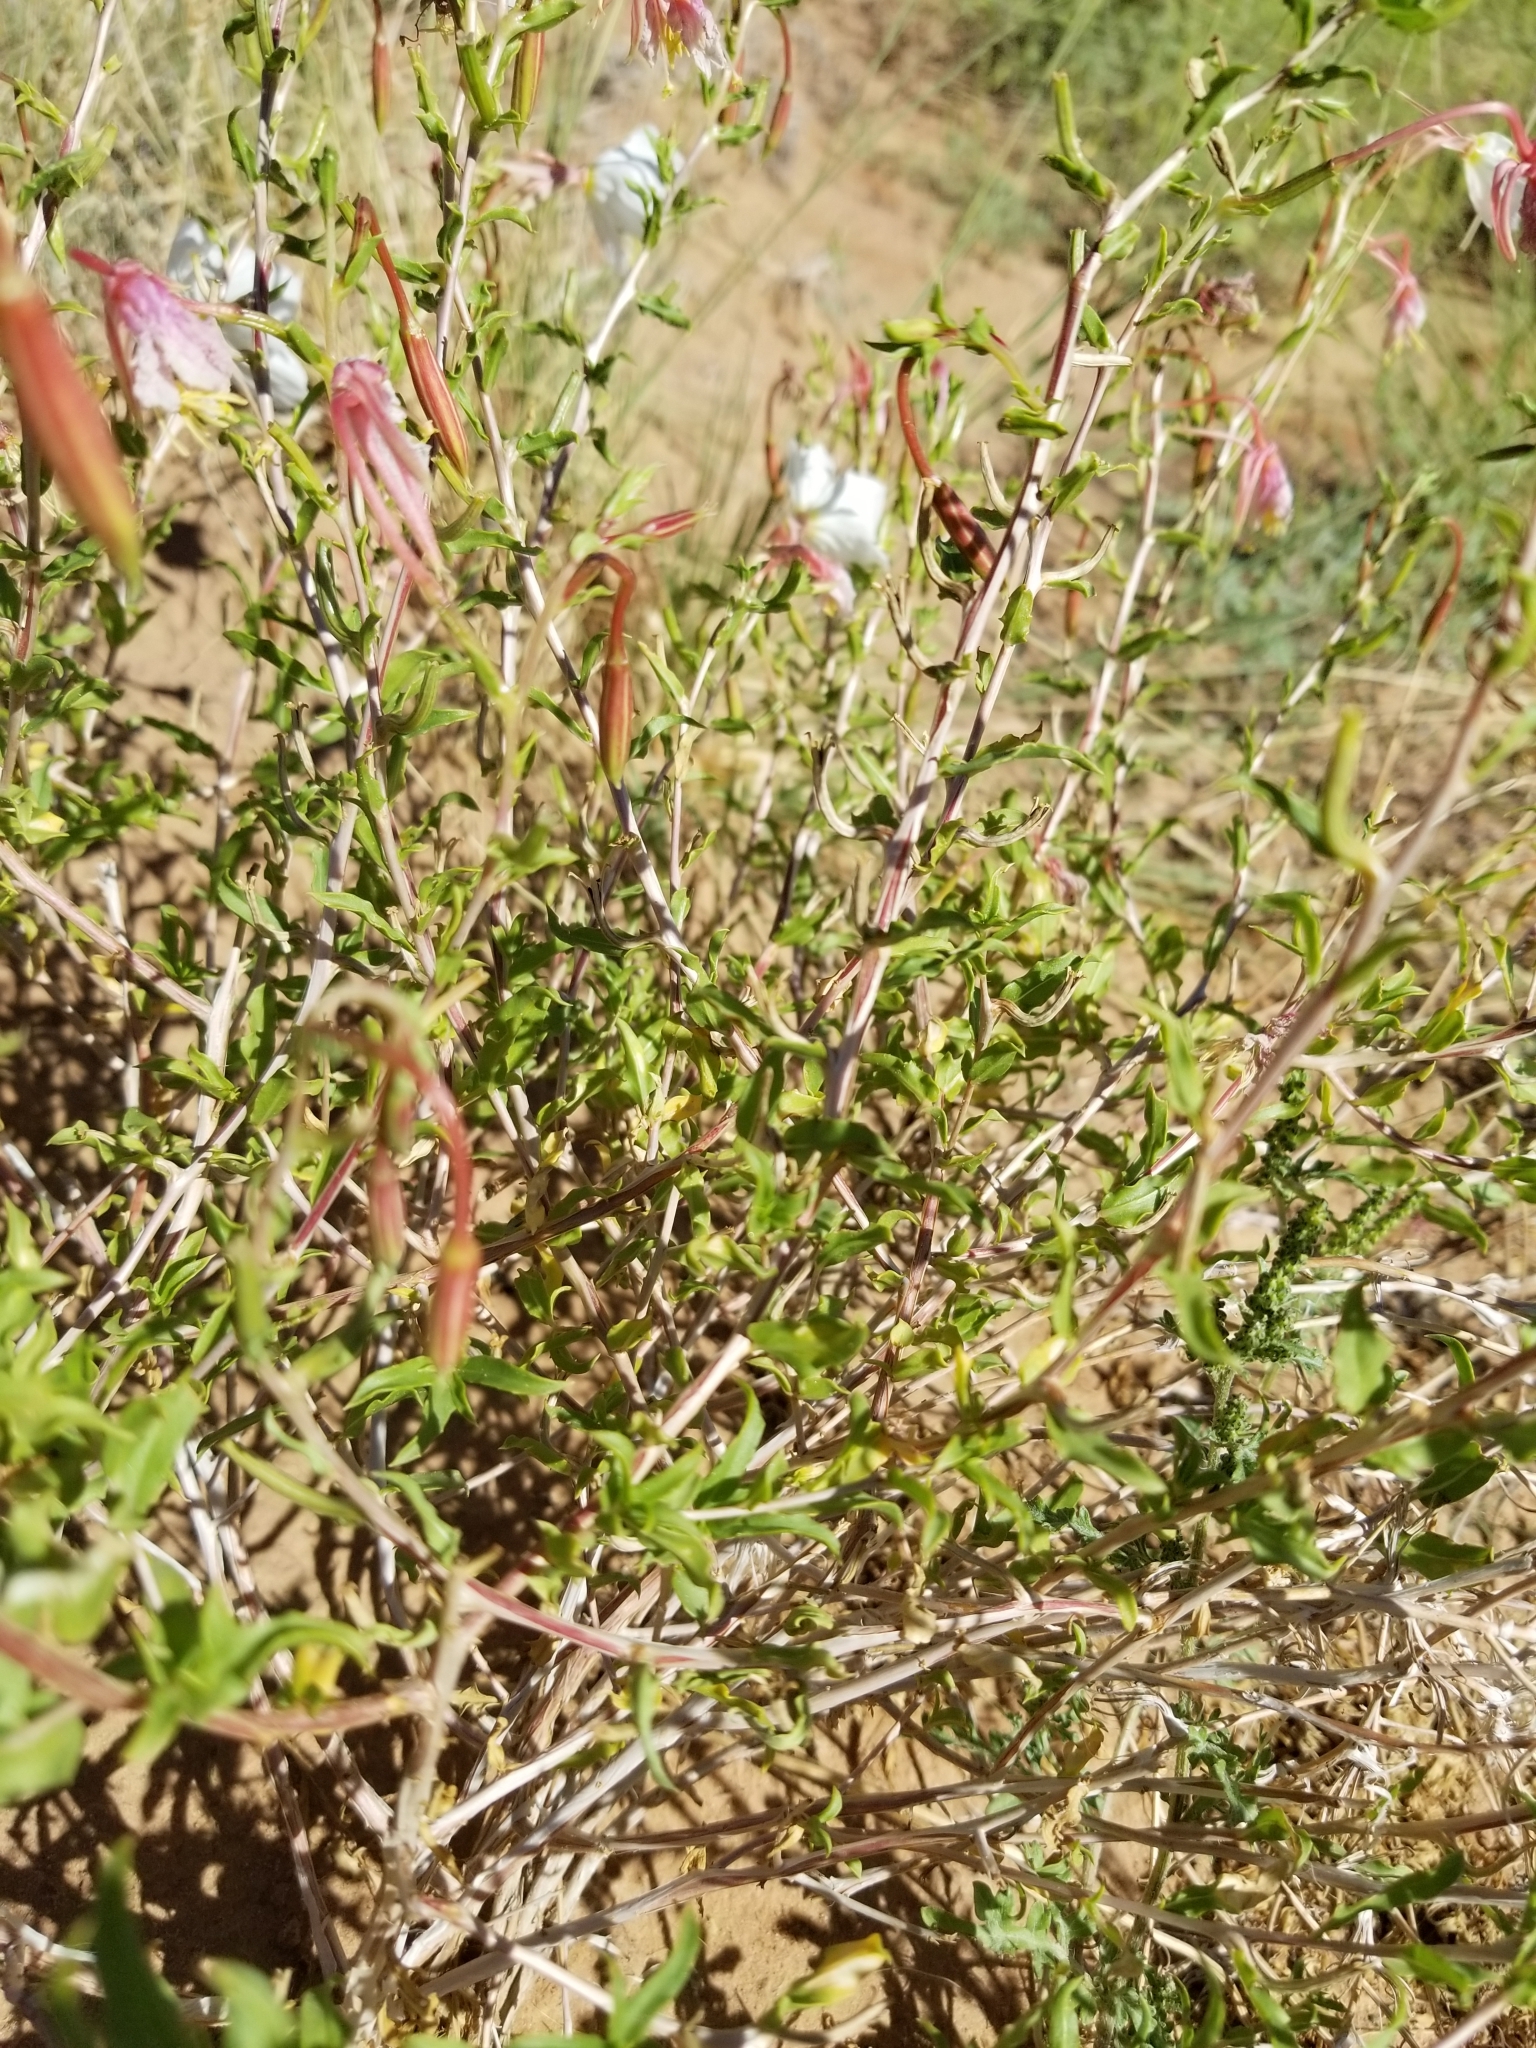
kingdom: Plantae
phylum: Tracheophyta
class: Magnoliopsida
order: Myrtales
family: Onagraceae
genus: Oenothera
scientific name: Oenothera pallida
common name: Pale evening-primrose
